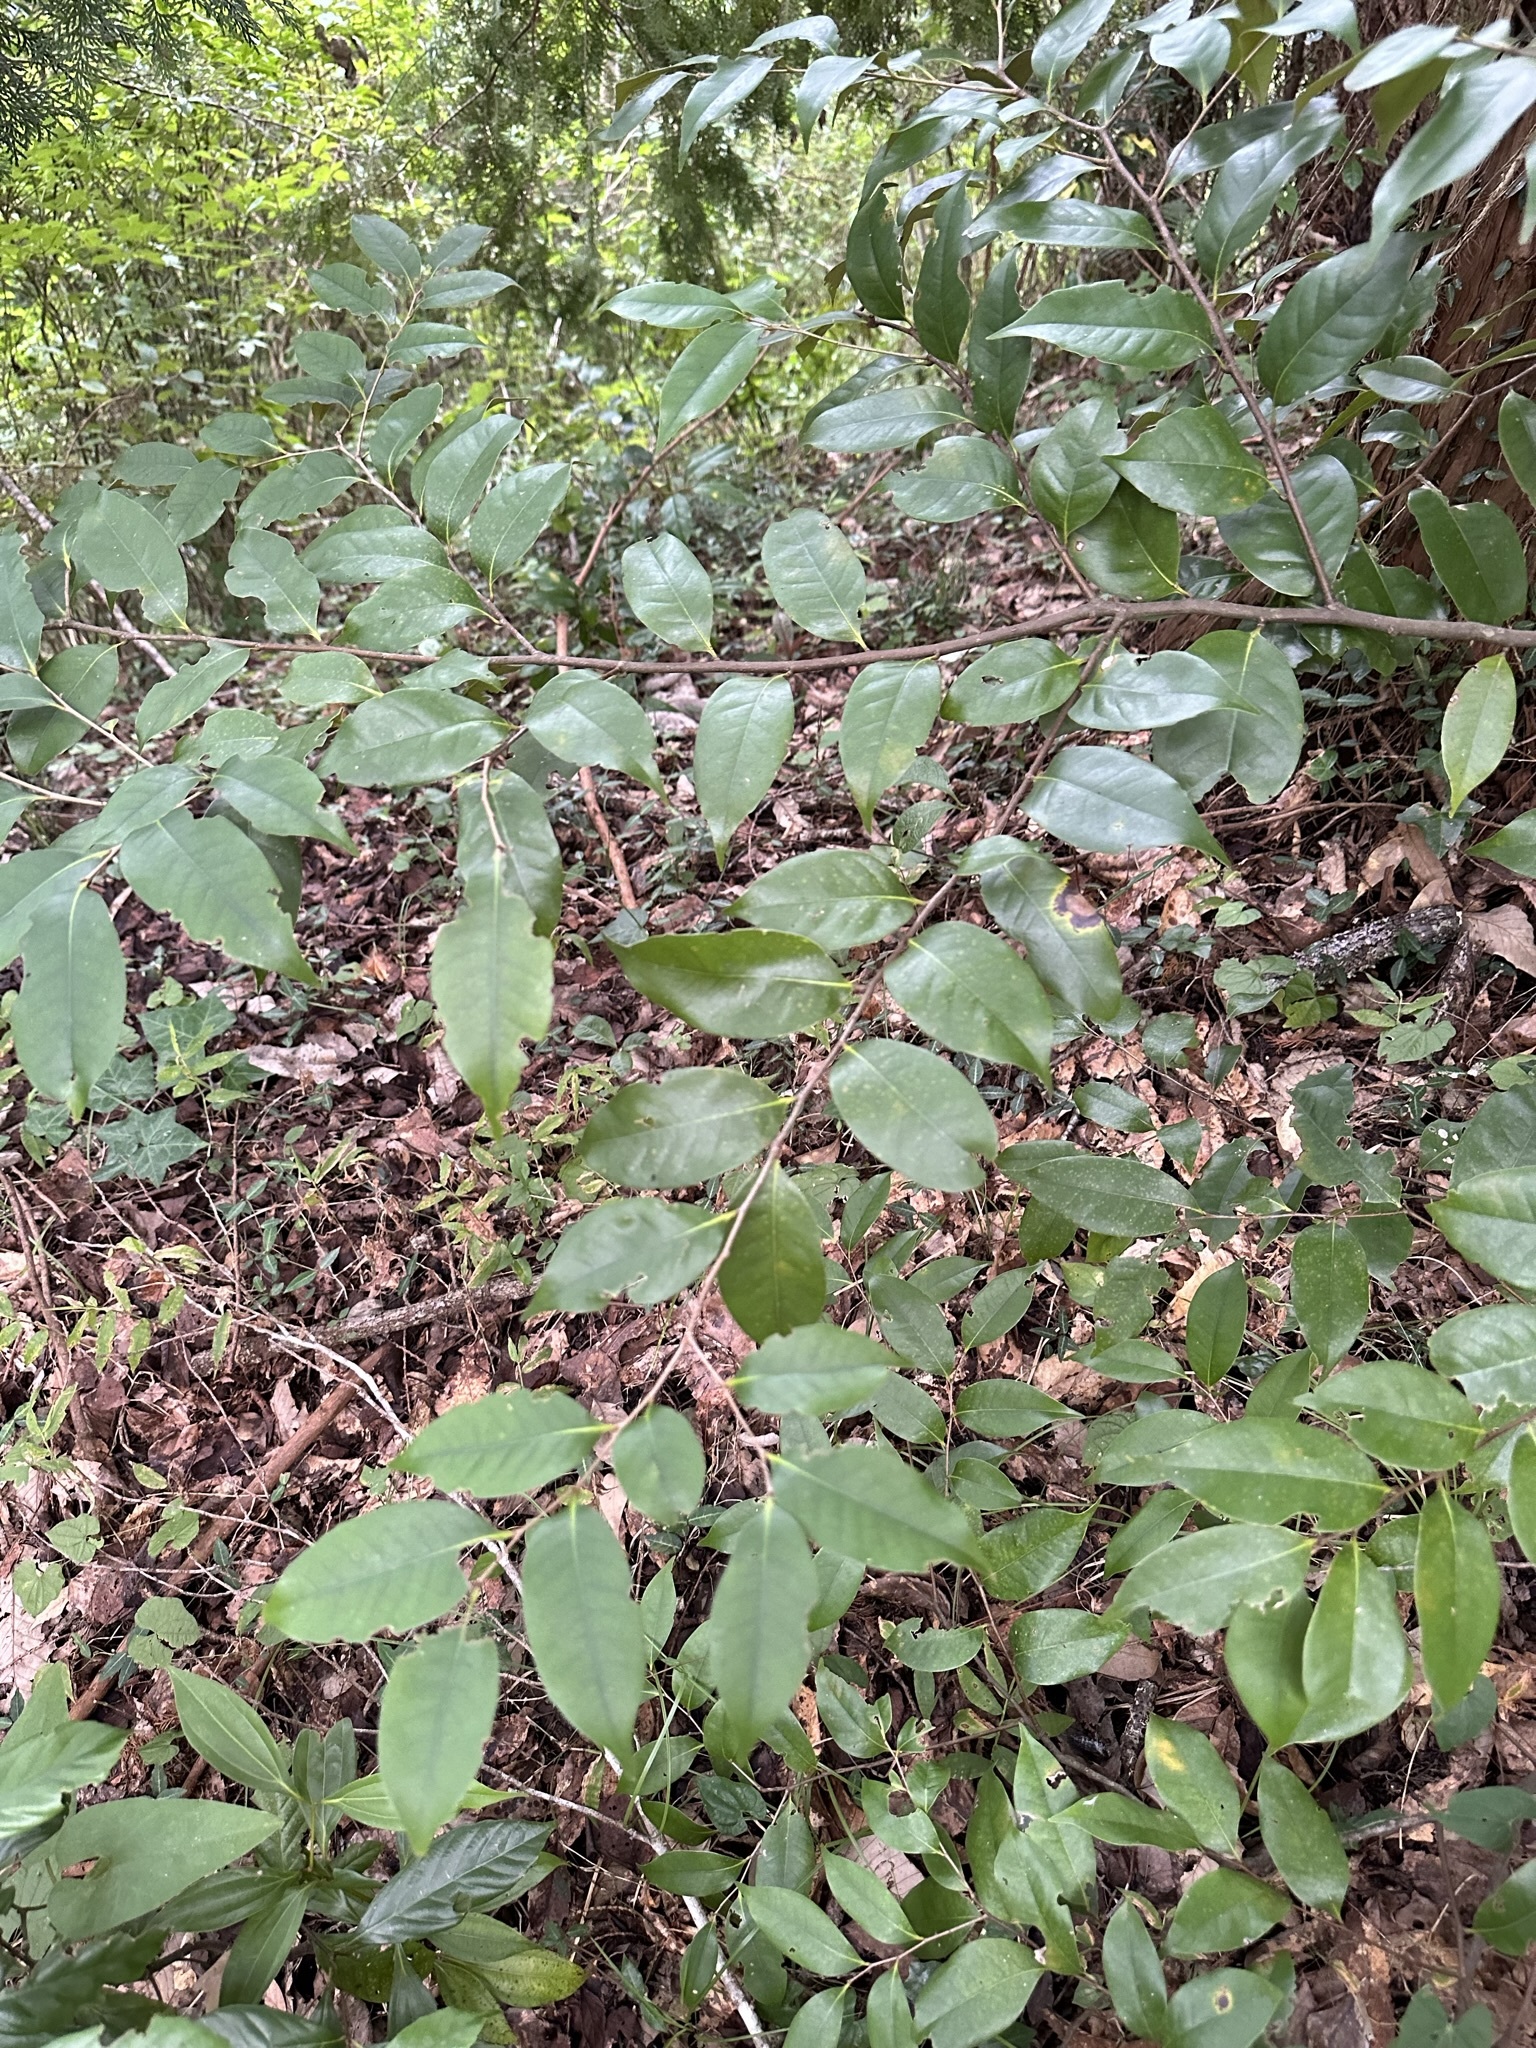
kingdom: Plantae
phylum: Tracheophyta
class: Magnoliopsida
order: Fagales
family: Fagaceae
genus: Castanopsis
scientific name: Castanopsis sieboldii
